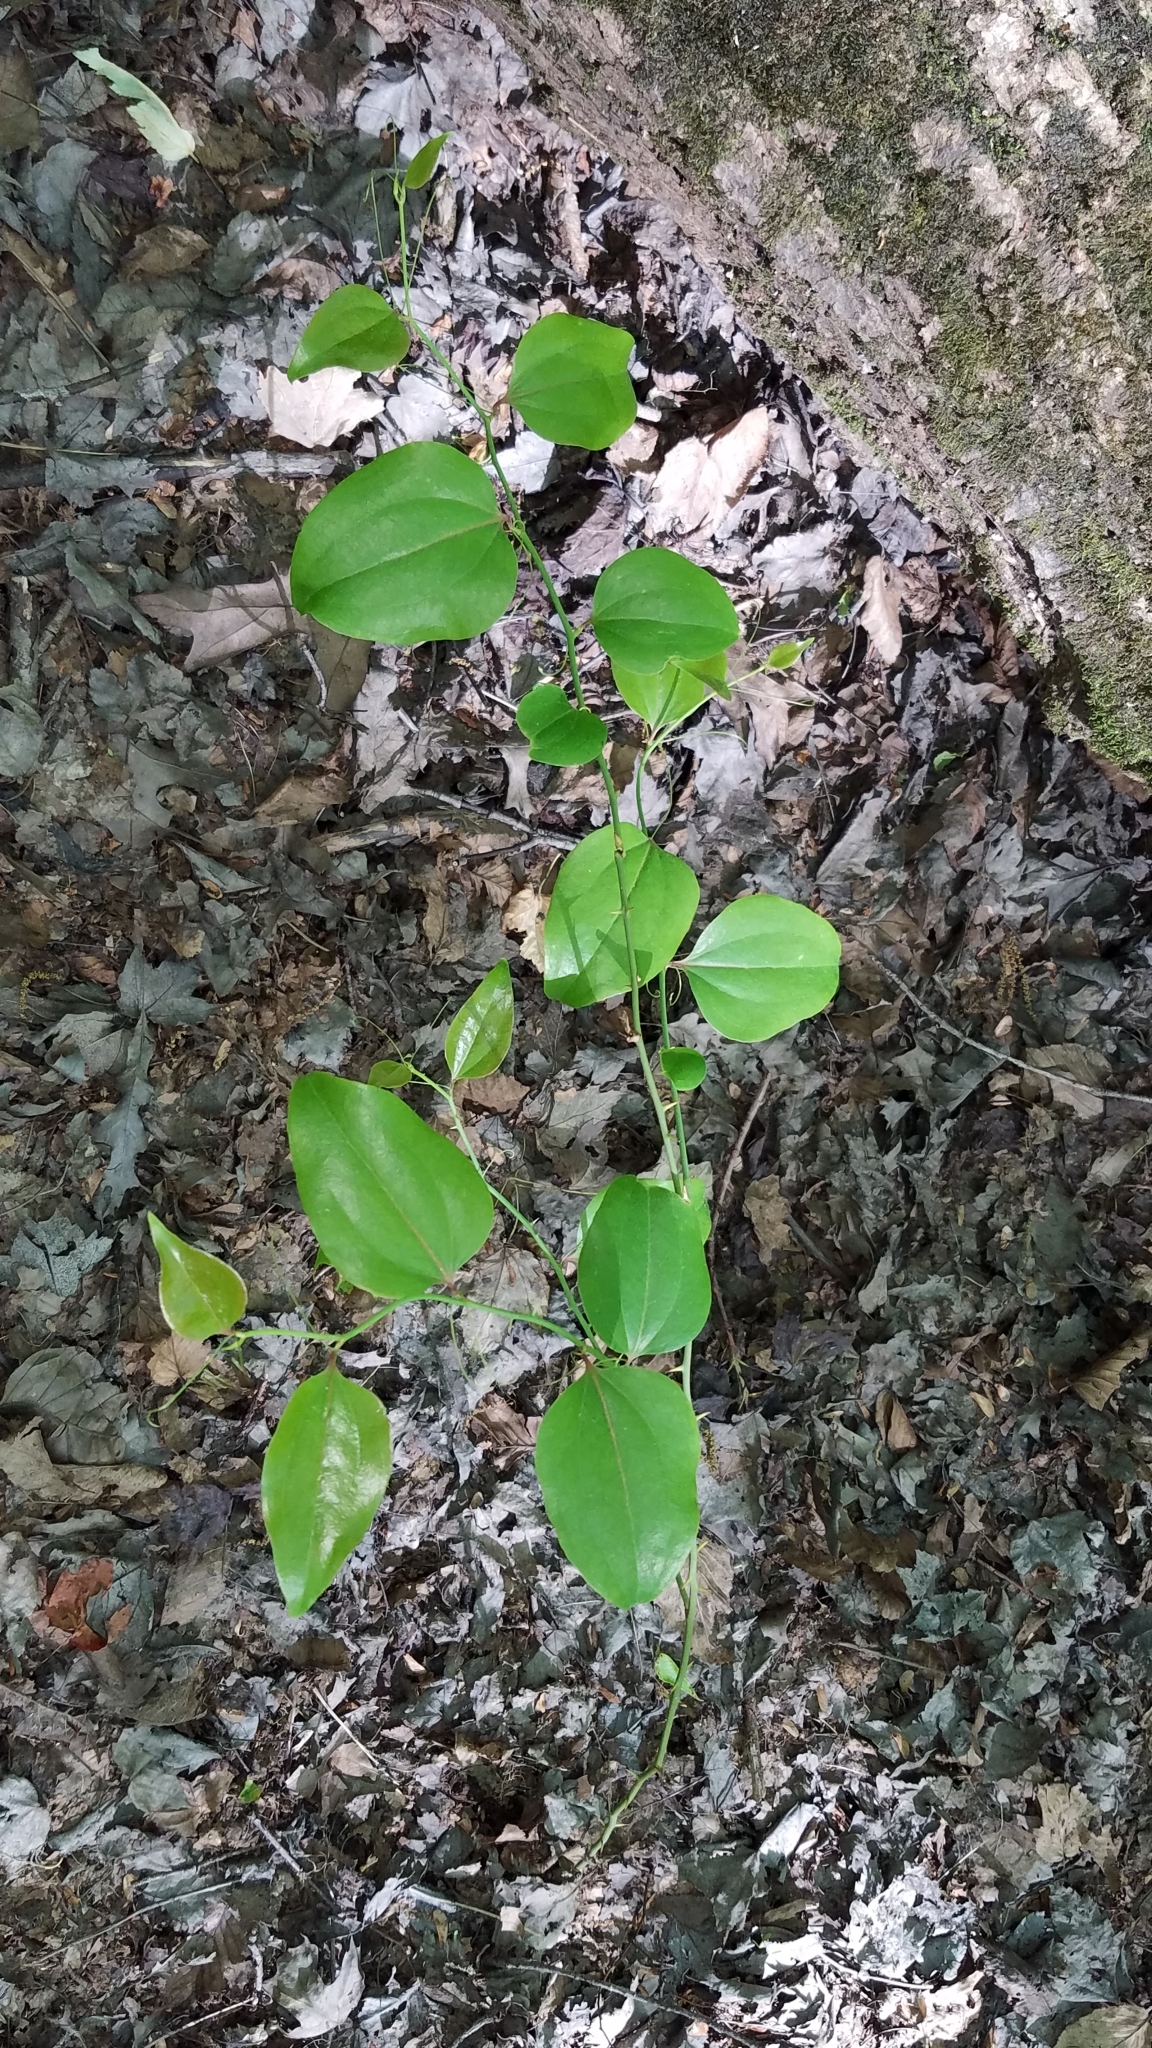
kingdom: Plantae
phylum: Tracheophyta
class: Liliopsida
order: Liliales
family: Smilacaceae
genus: Smilax
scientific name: Smilax rotundifolia
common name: Bullbriar
